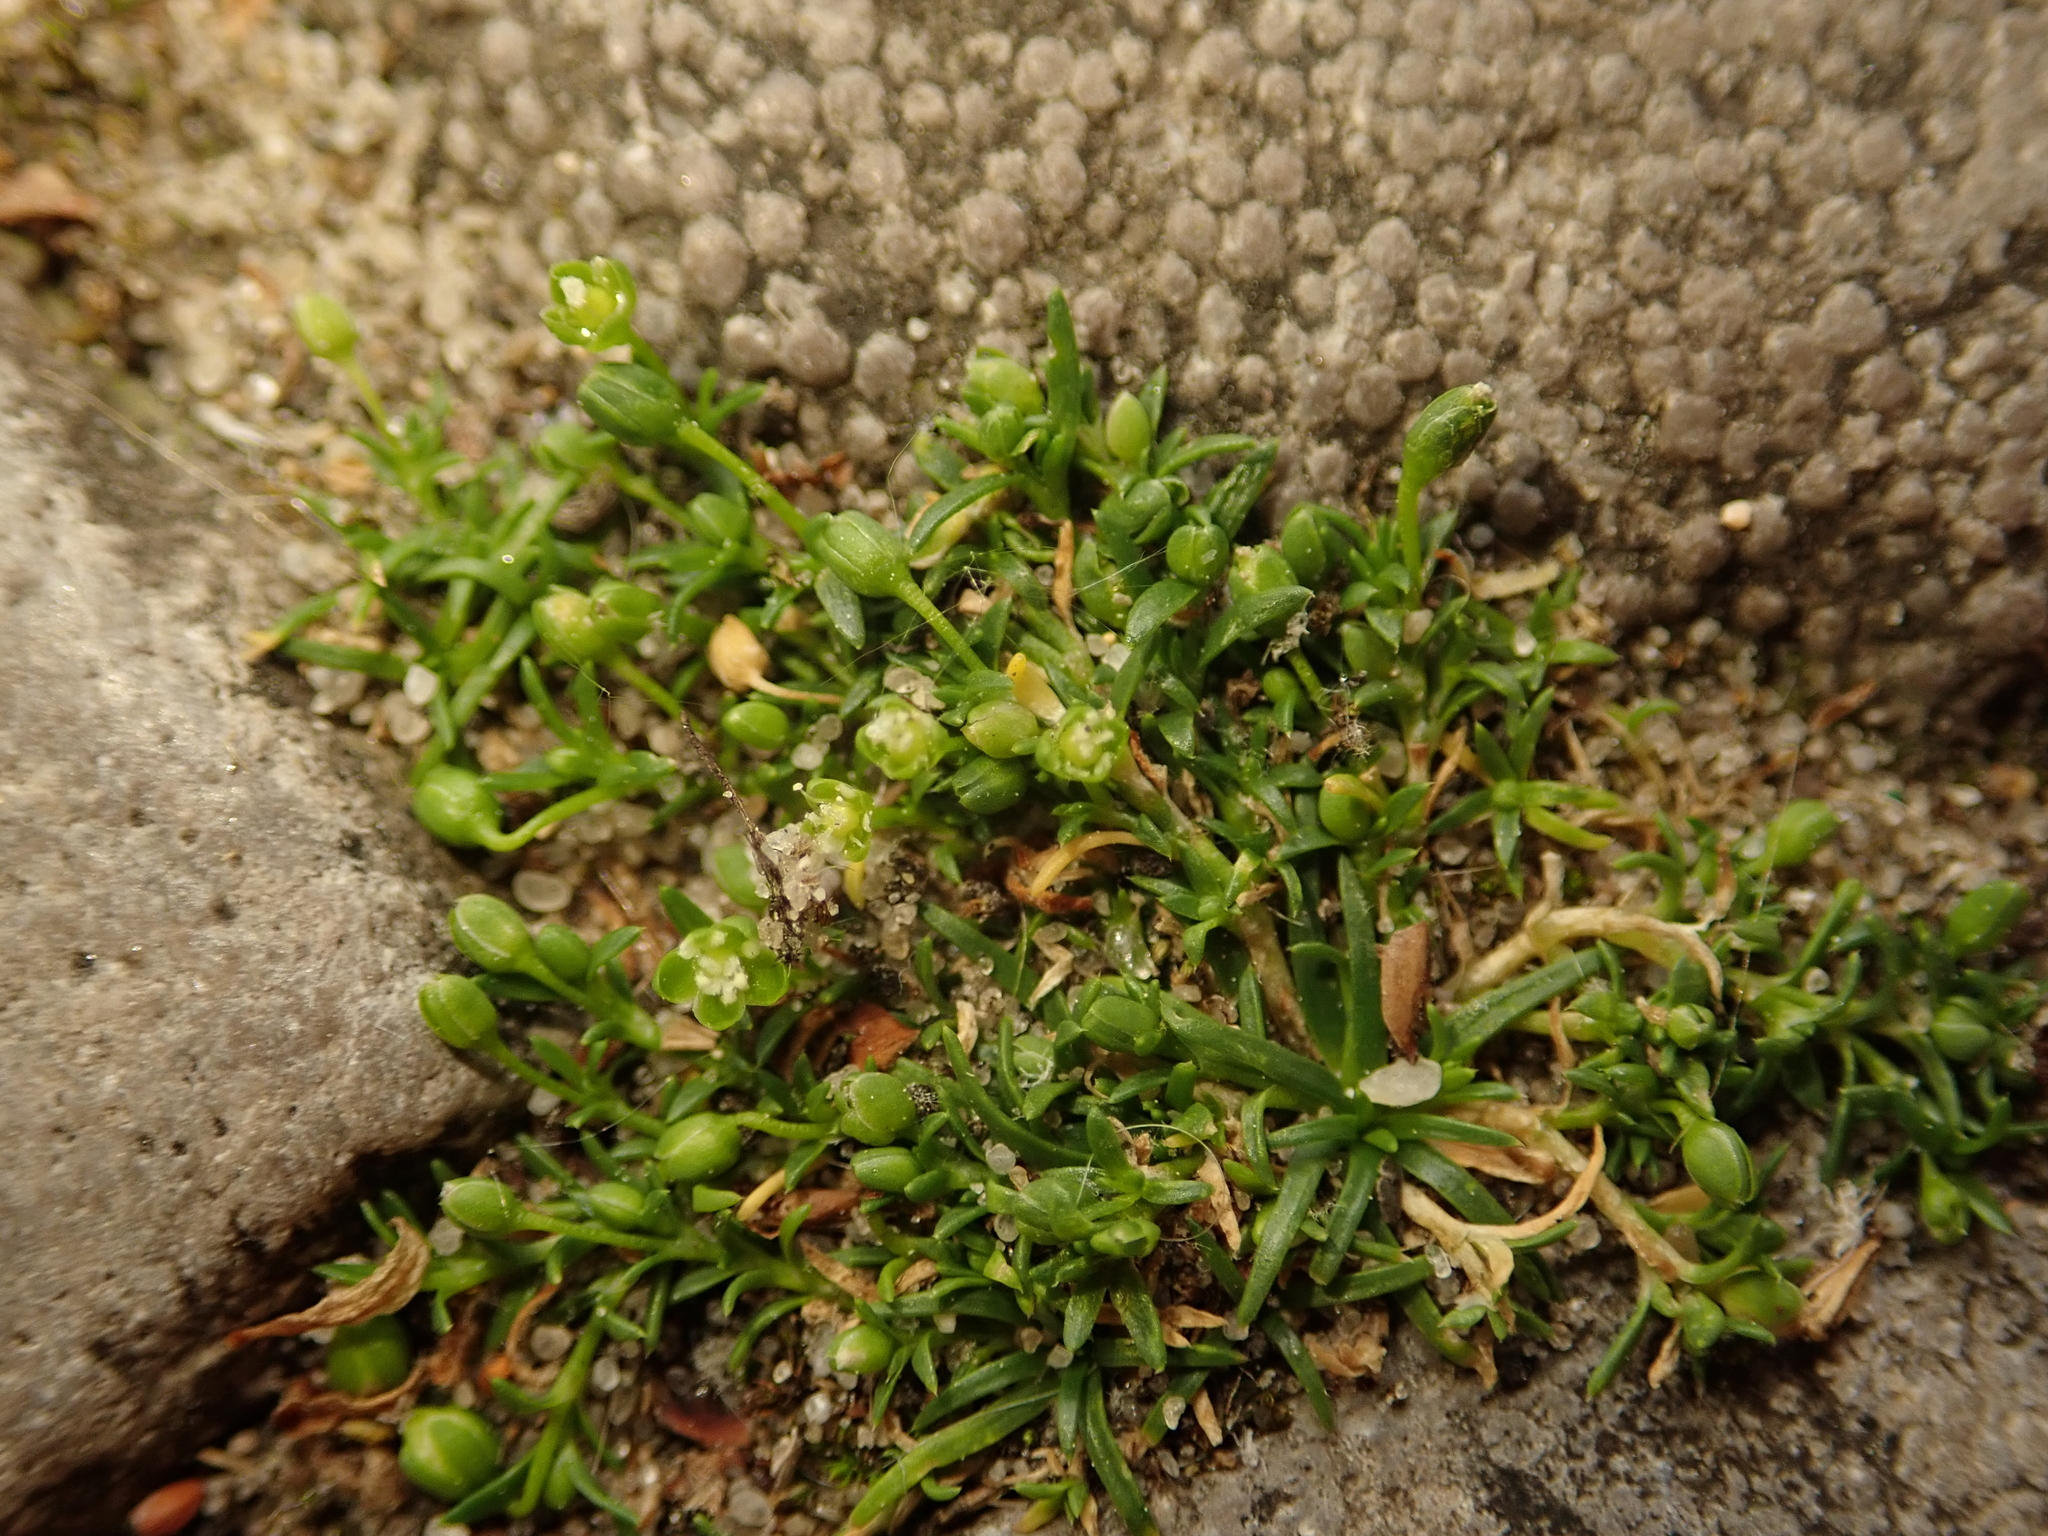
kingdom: Plantae
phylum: Tracheophyta
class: Magnoliopsida
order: Caryophyllales
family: Caryophyllaceae
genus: Sagina
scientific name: Sagina procumbens
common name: Procumbent pearlwort
